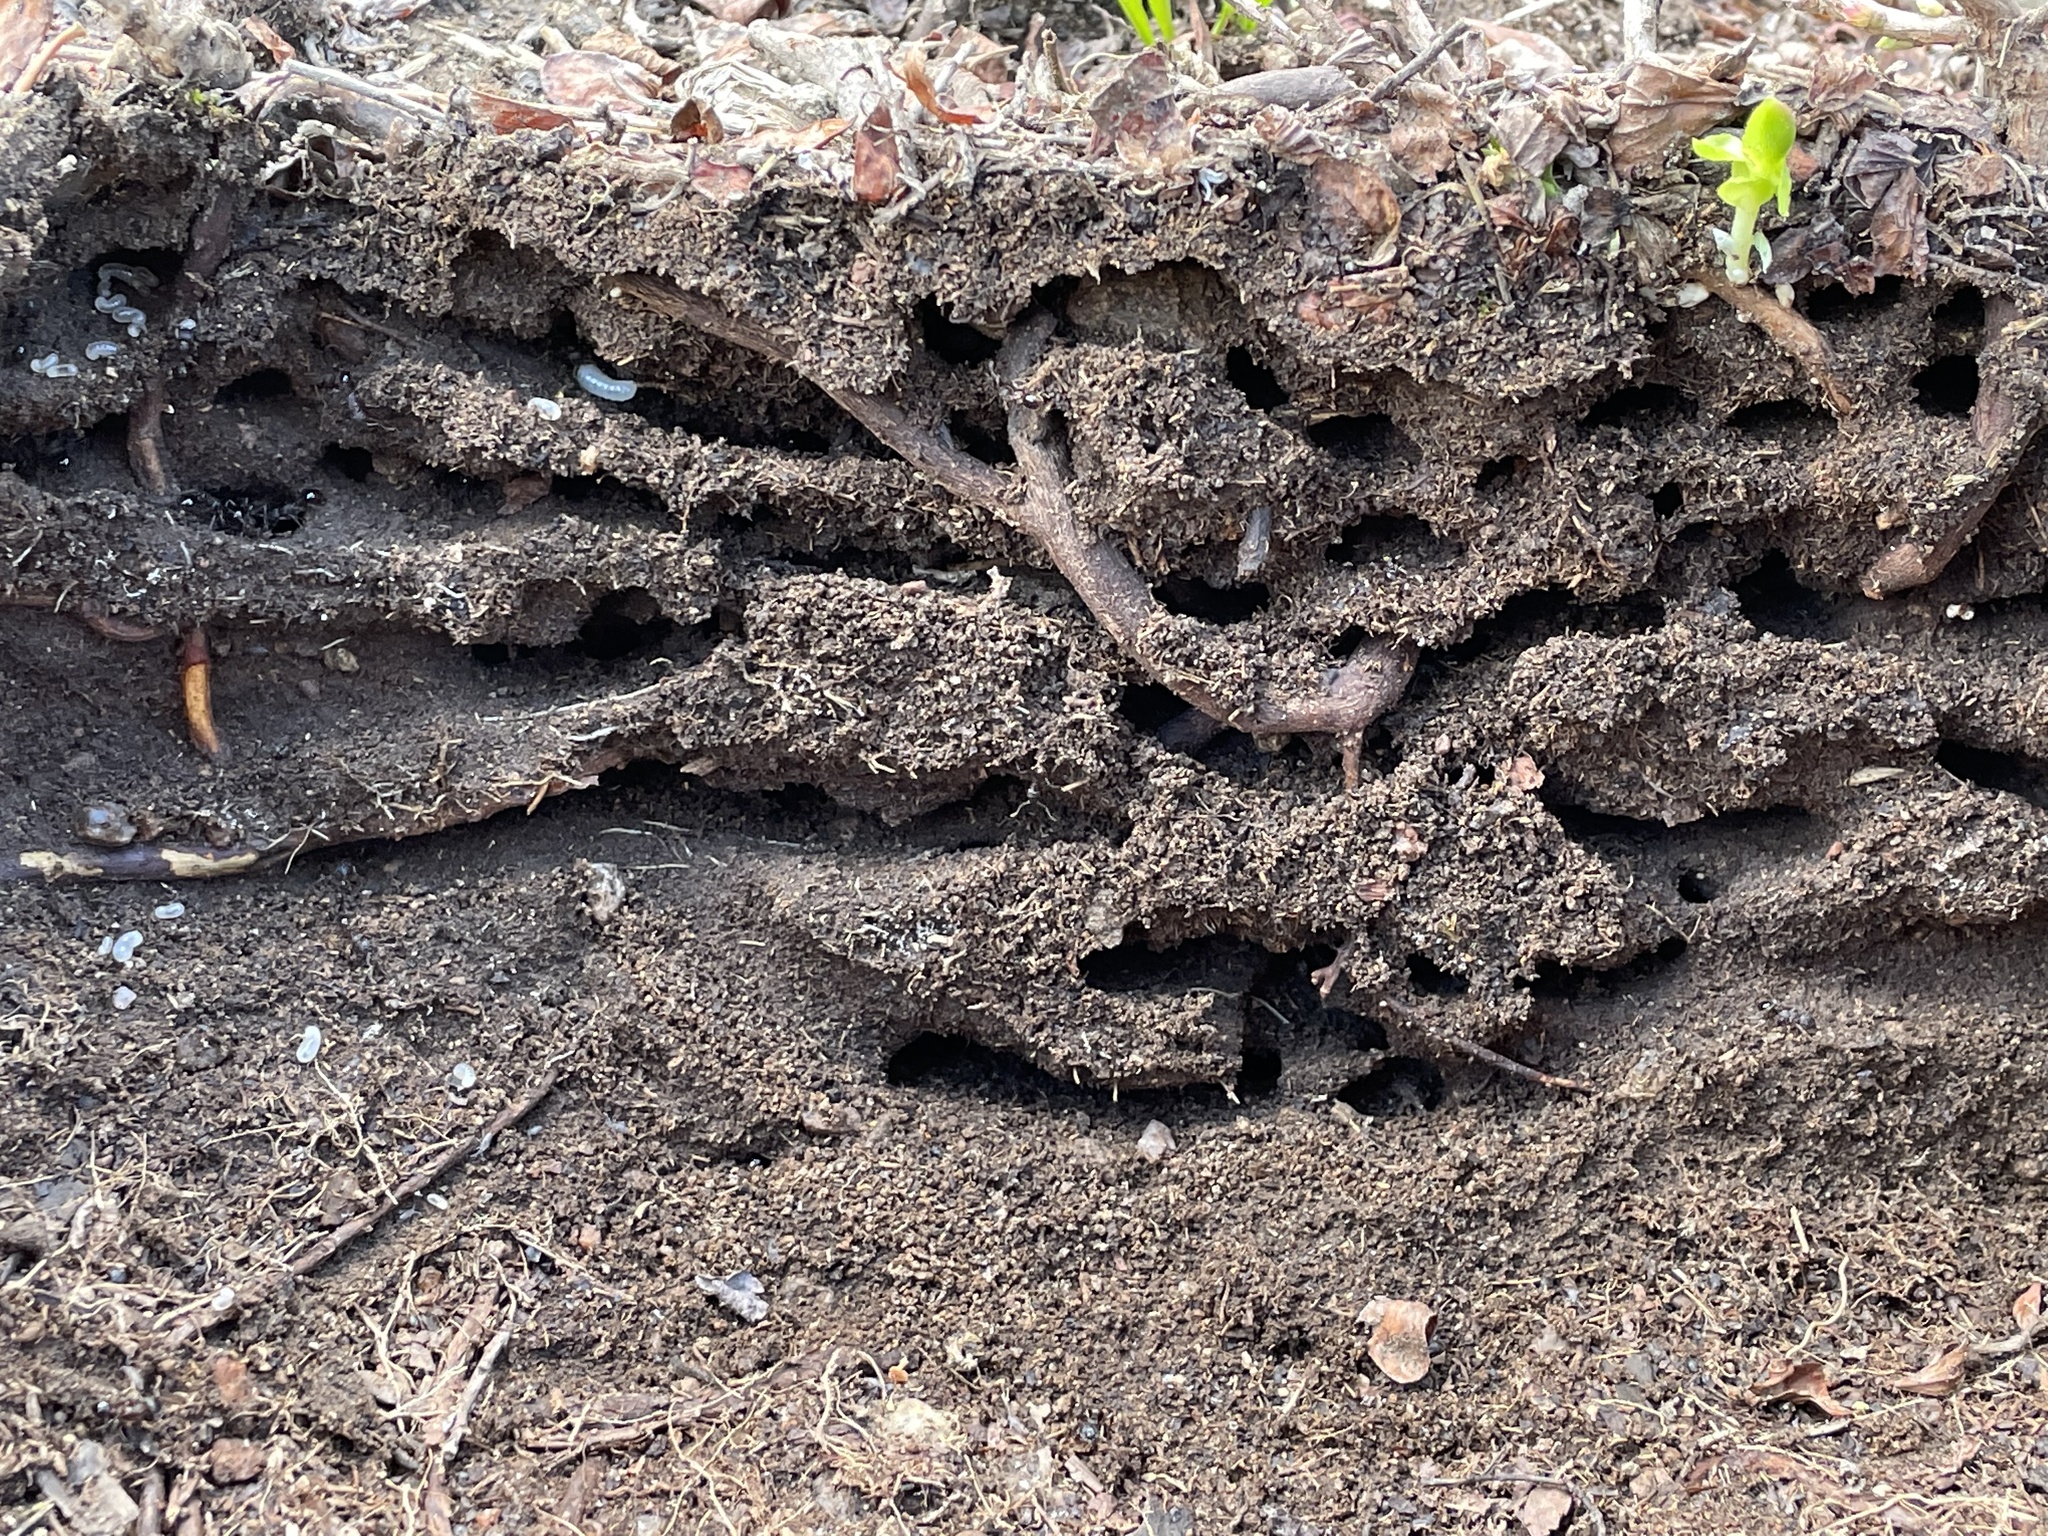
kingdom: Animalia
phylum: Arthropoda
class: Insecta
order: Hymenoptera
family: Formicidae
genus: Tetramorium
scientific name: Tetramorium immigrans
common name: Pavement ant
